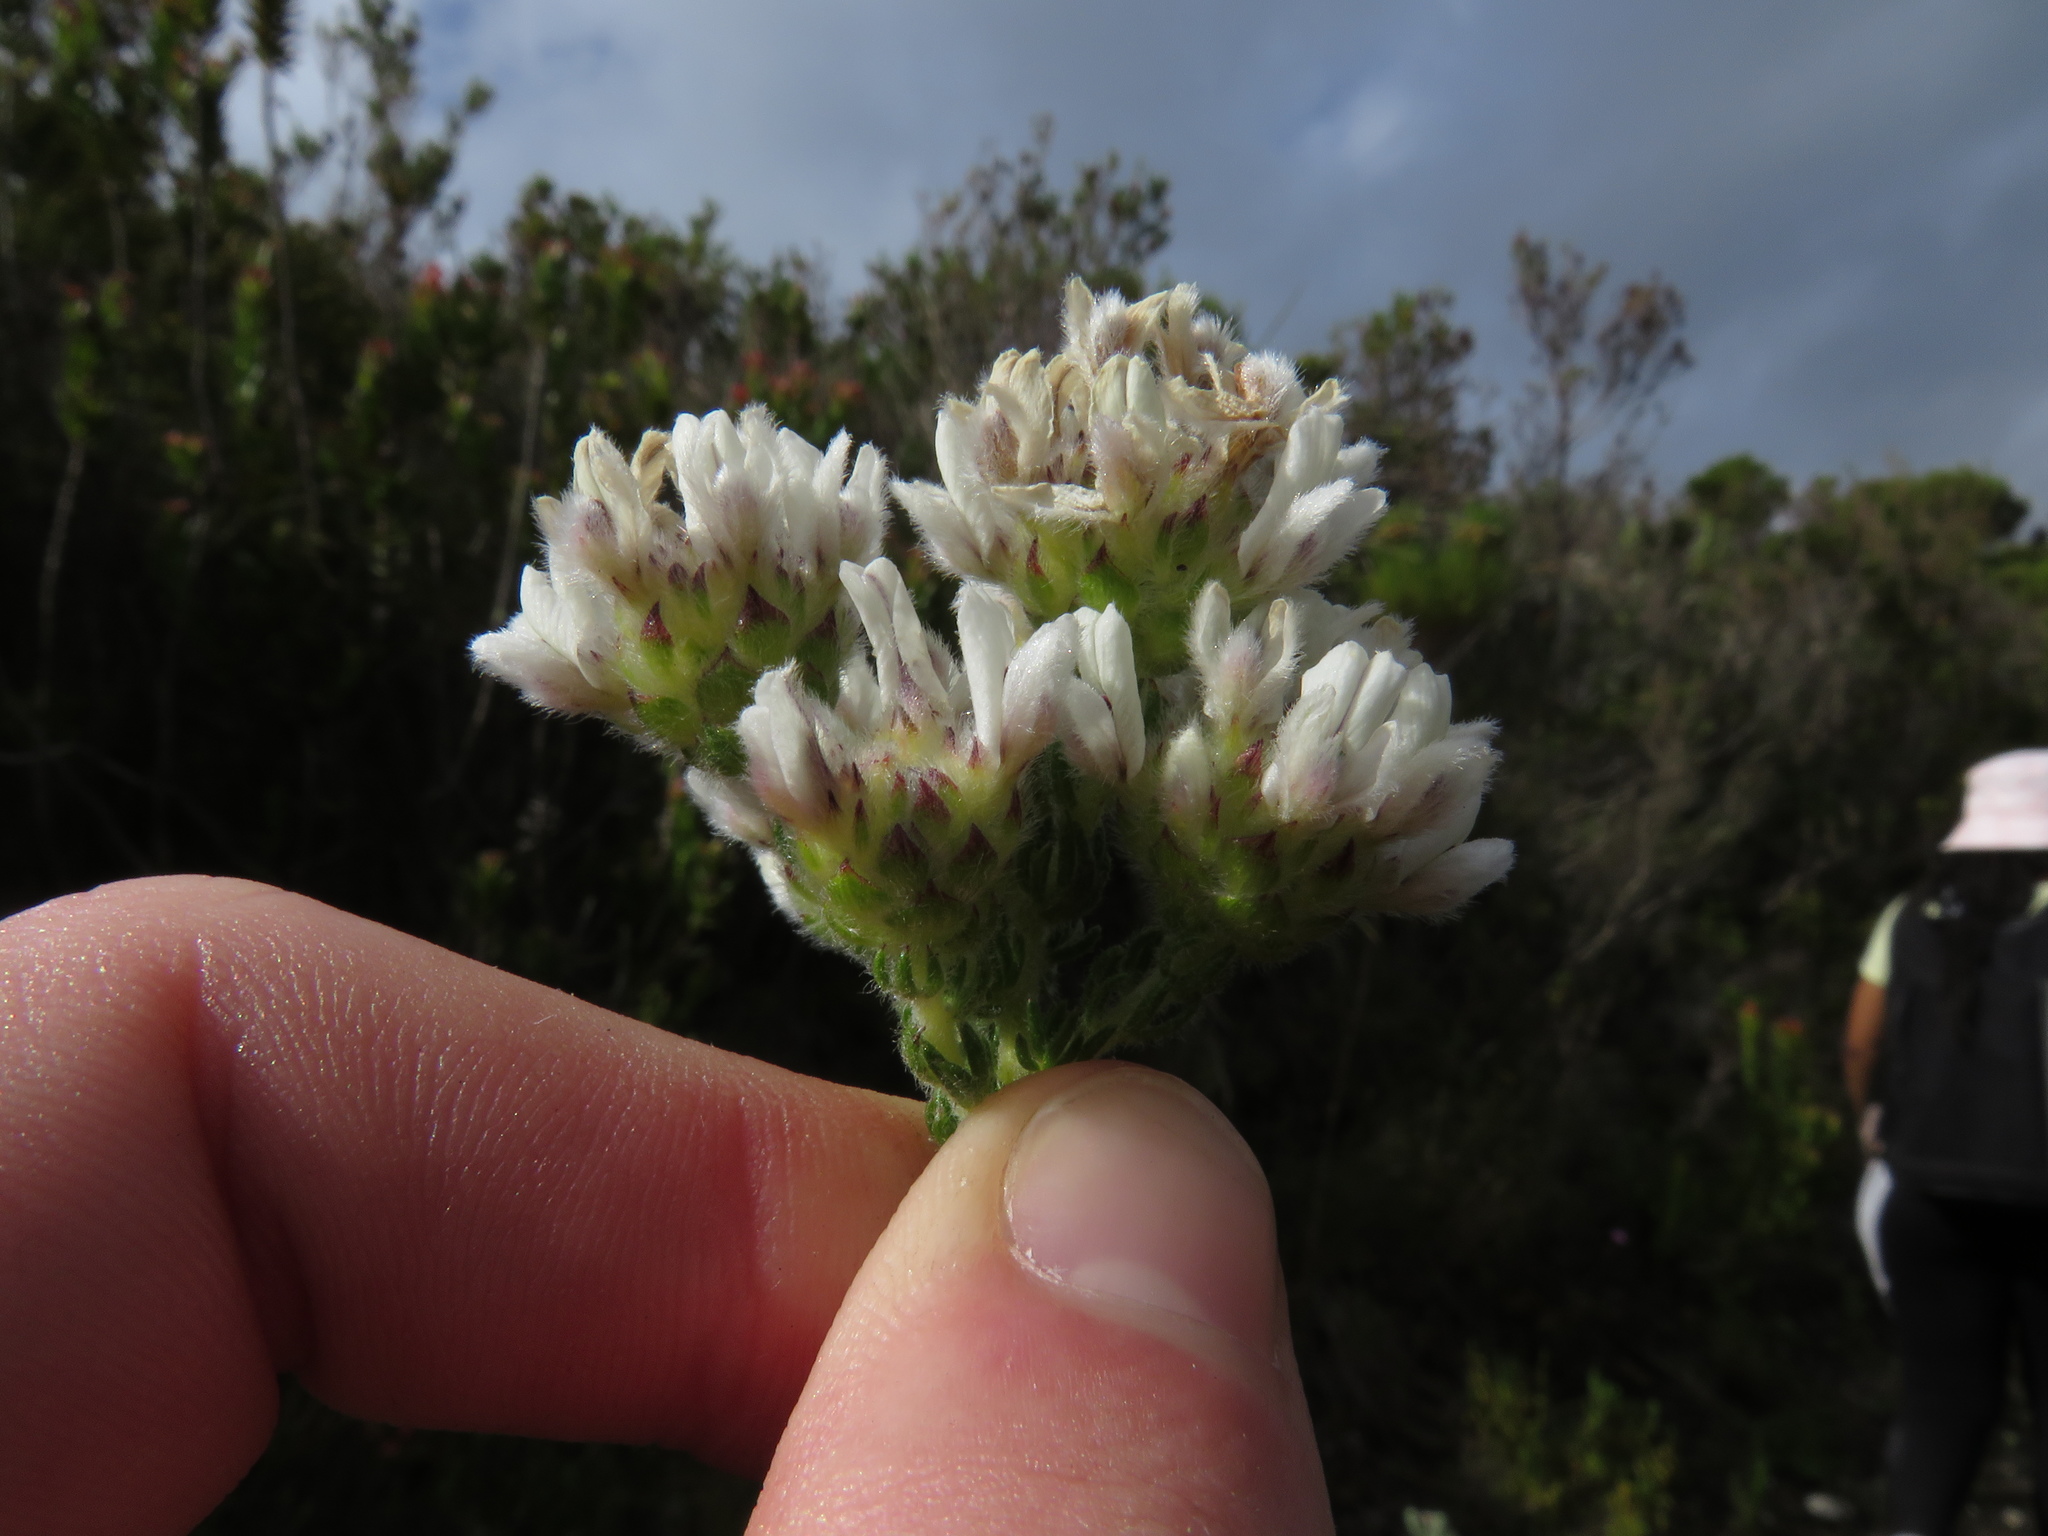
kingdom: Plantae
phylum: Tracheophyta
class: Magnoliopsida
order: Fabales
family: Fabaceae
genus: Aspalathus
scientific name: Aspalathus forbesii
